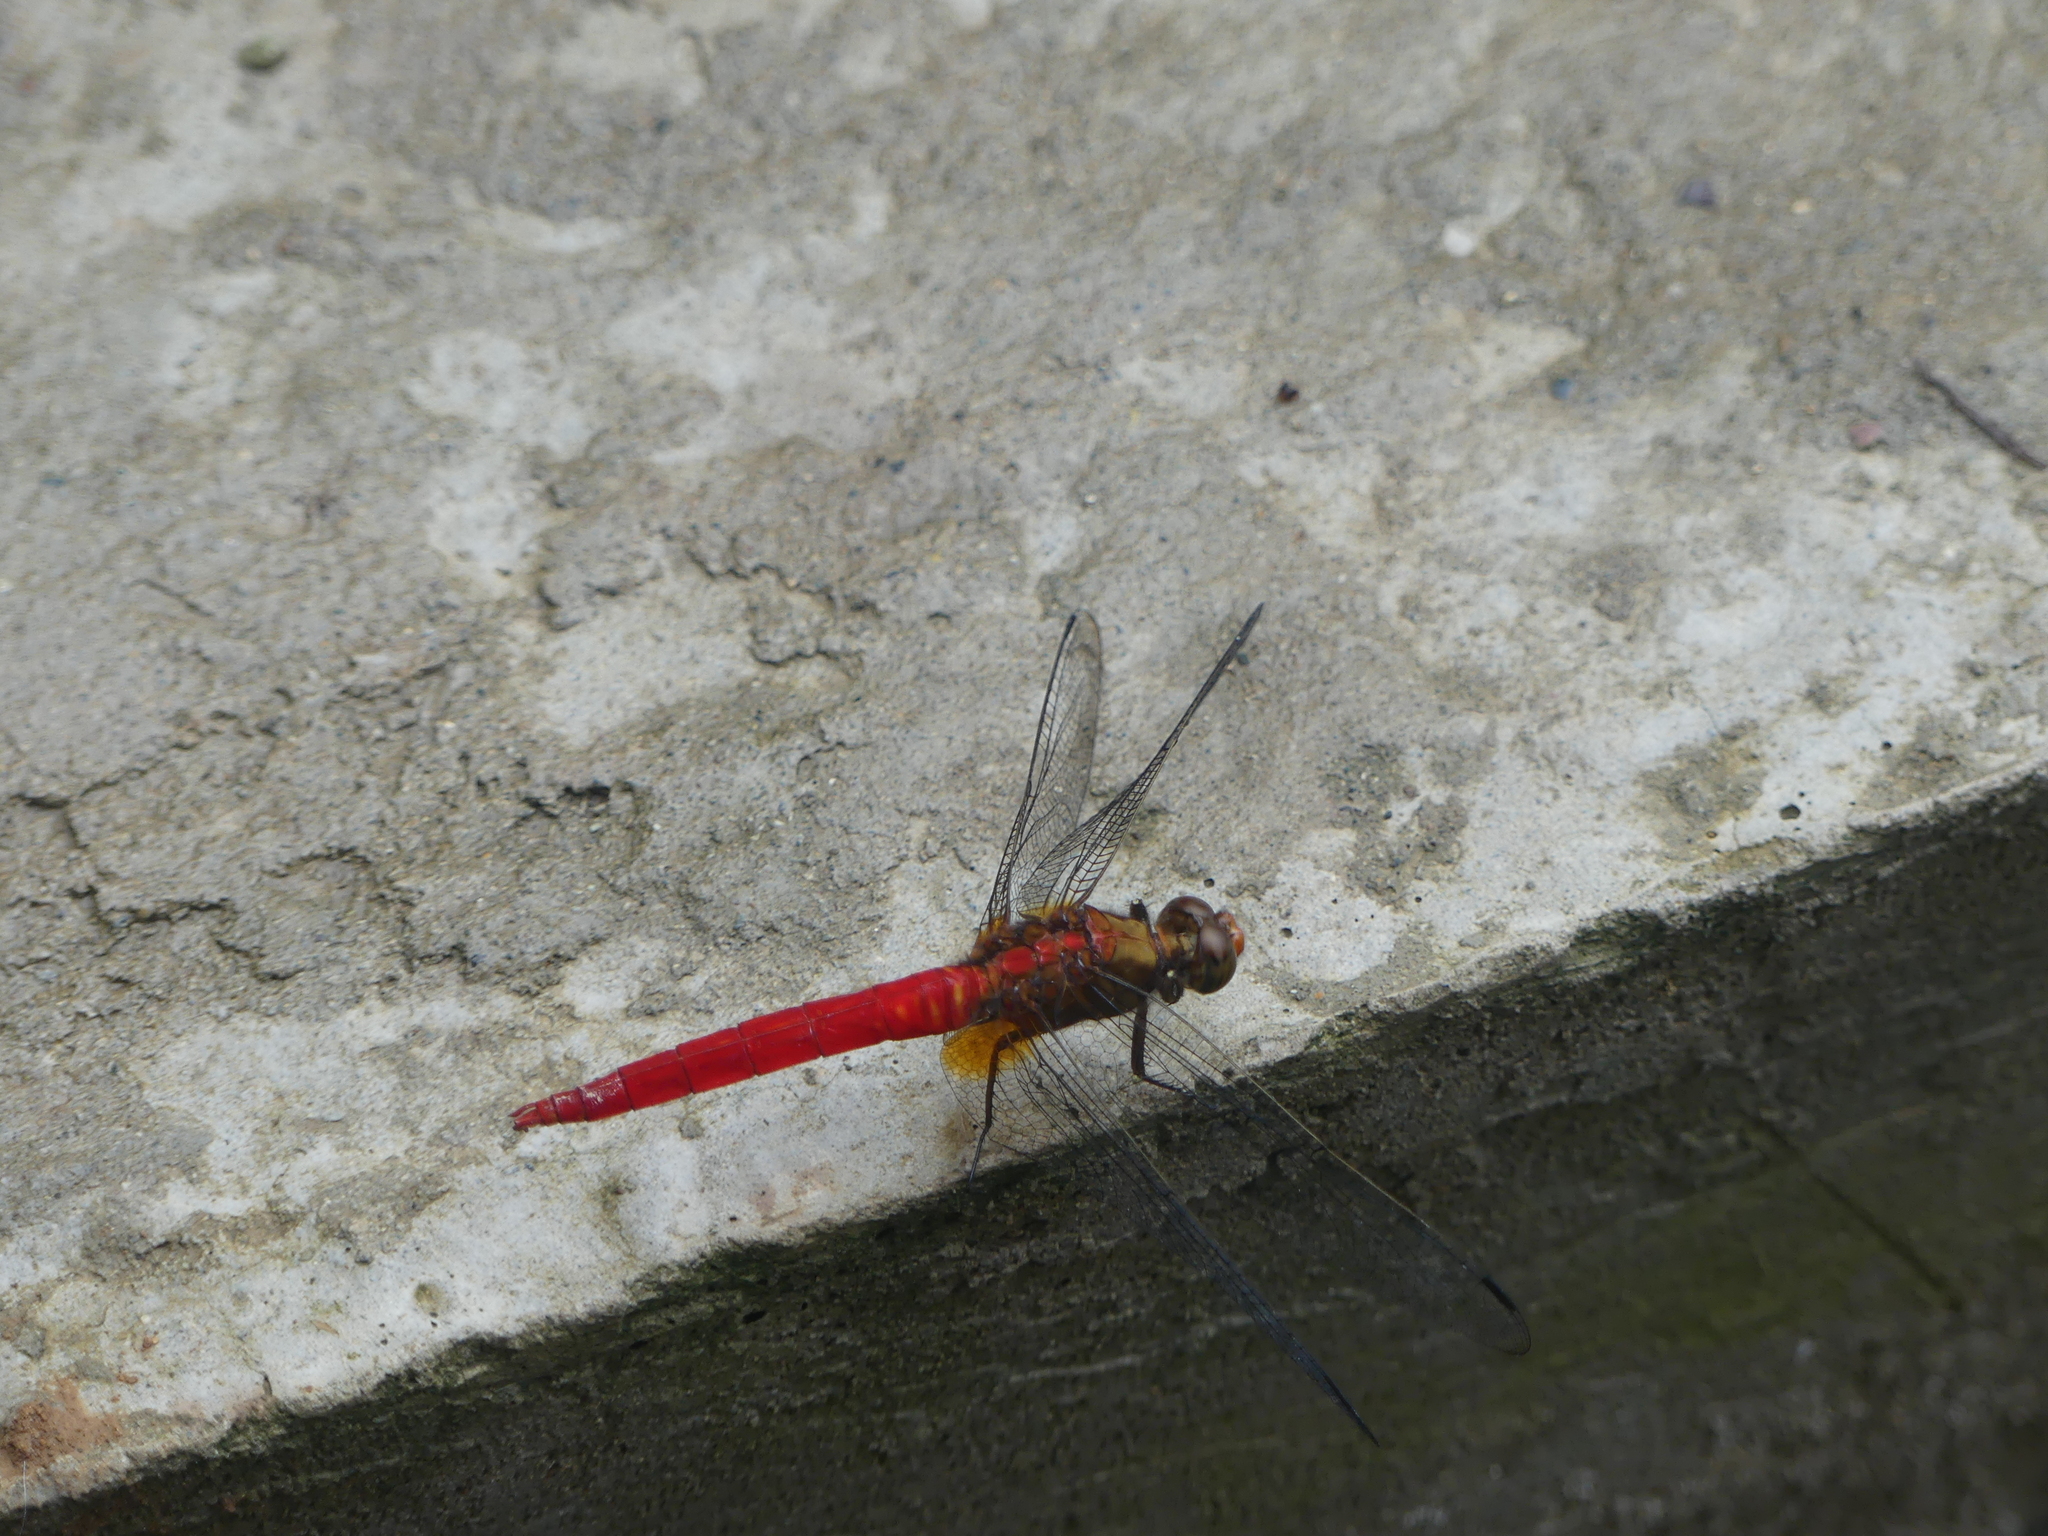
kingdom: Animalia
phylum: Arthropoda
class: Insecta
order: Odonata
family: Libellulidae
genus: Orthetrum
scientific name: Orthetrum testaceum
